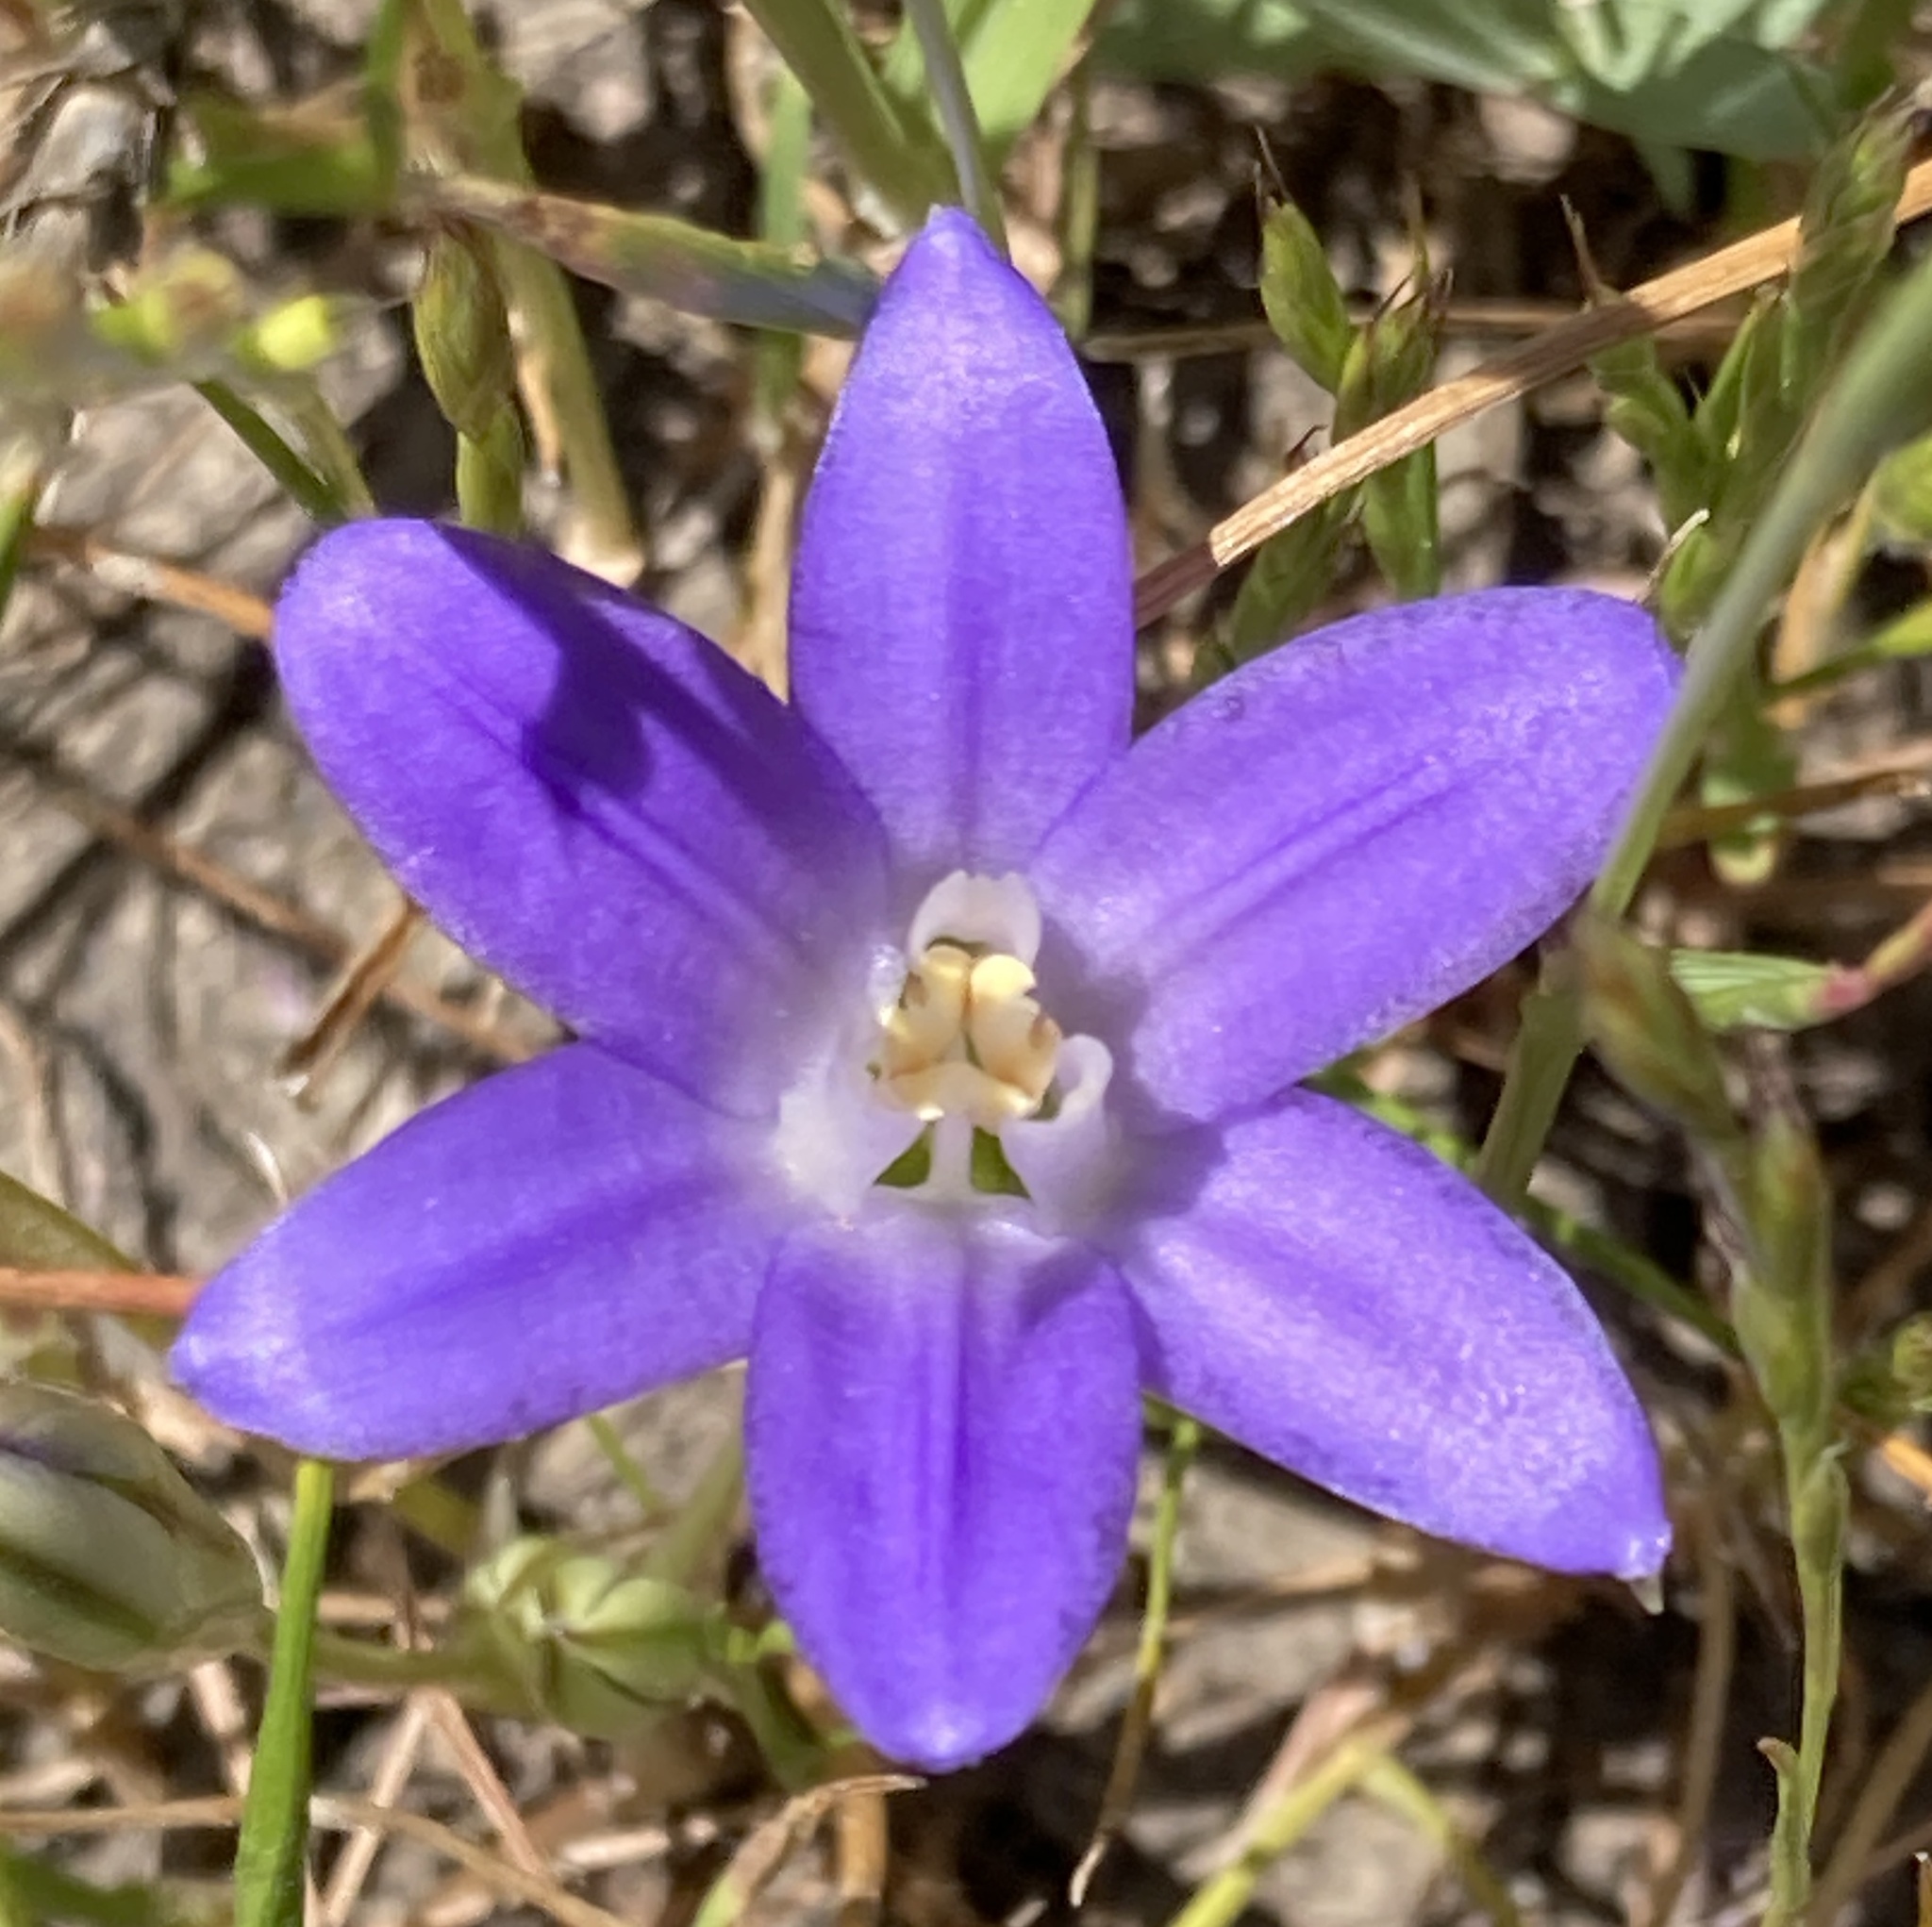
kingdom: Plantae
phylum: Tracheophyta
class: Liliopsida
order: Asparagales
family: Asparagaceae
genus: Brodiaea
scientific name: Brodiaea terrestris
